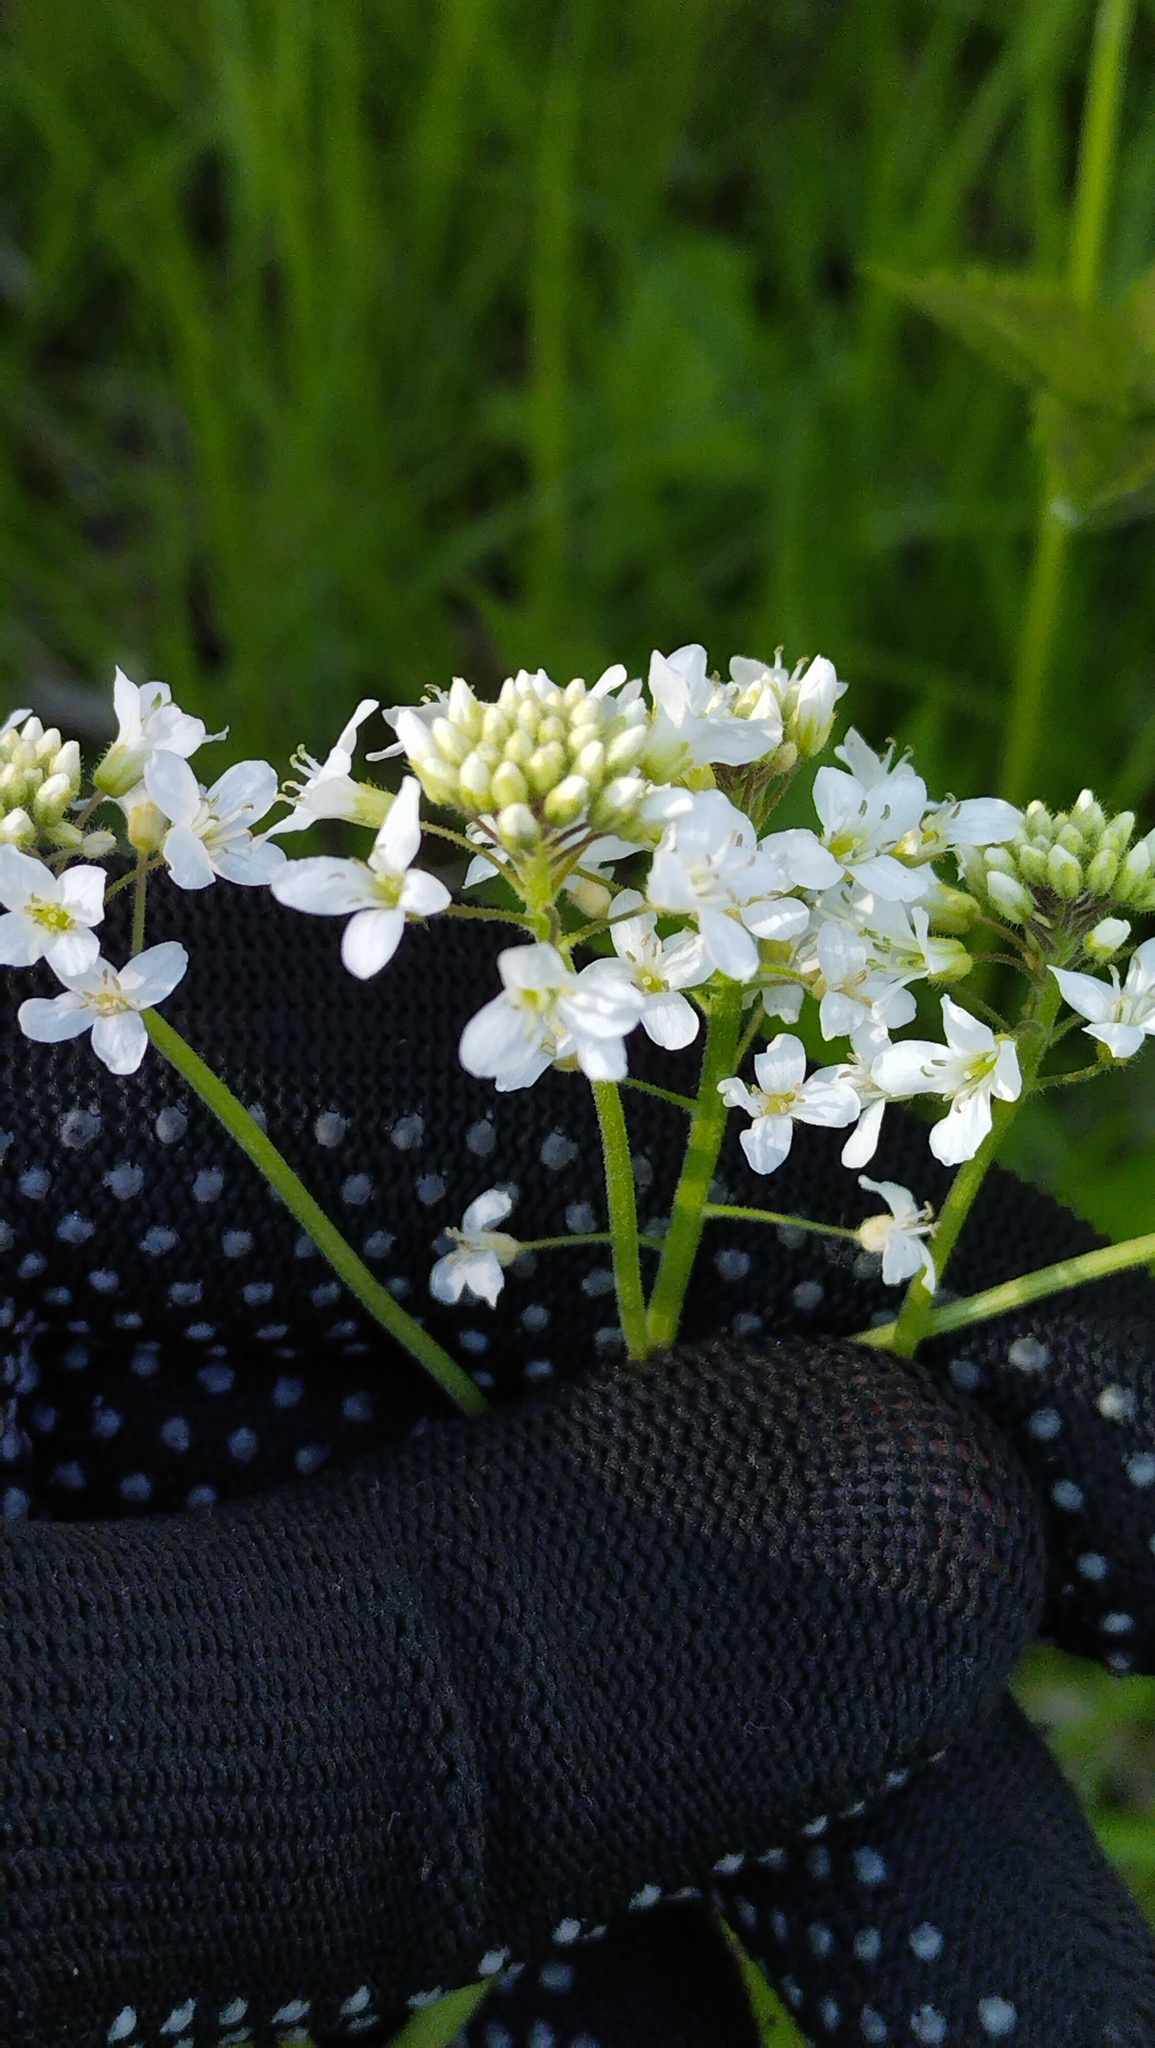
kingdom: Plantae
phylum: Tracheophyta
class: Magnoliopsida
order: Brassicales
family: Brassicaceae
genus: Cardamine
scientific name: Cardamine leucantha
